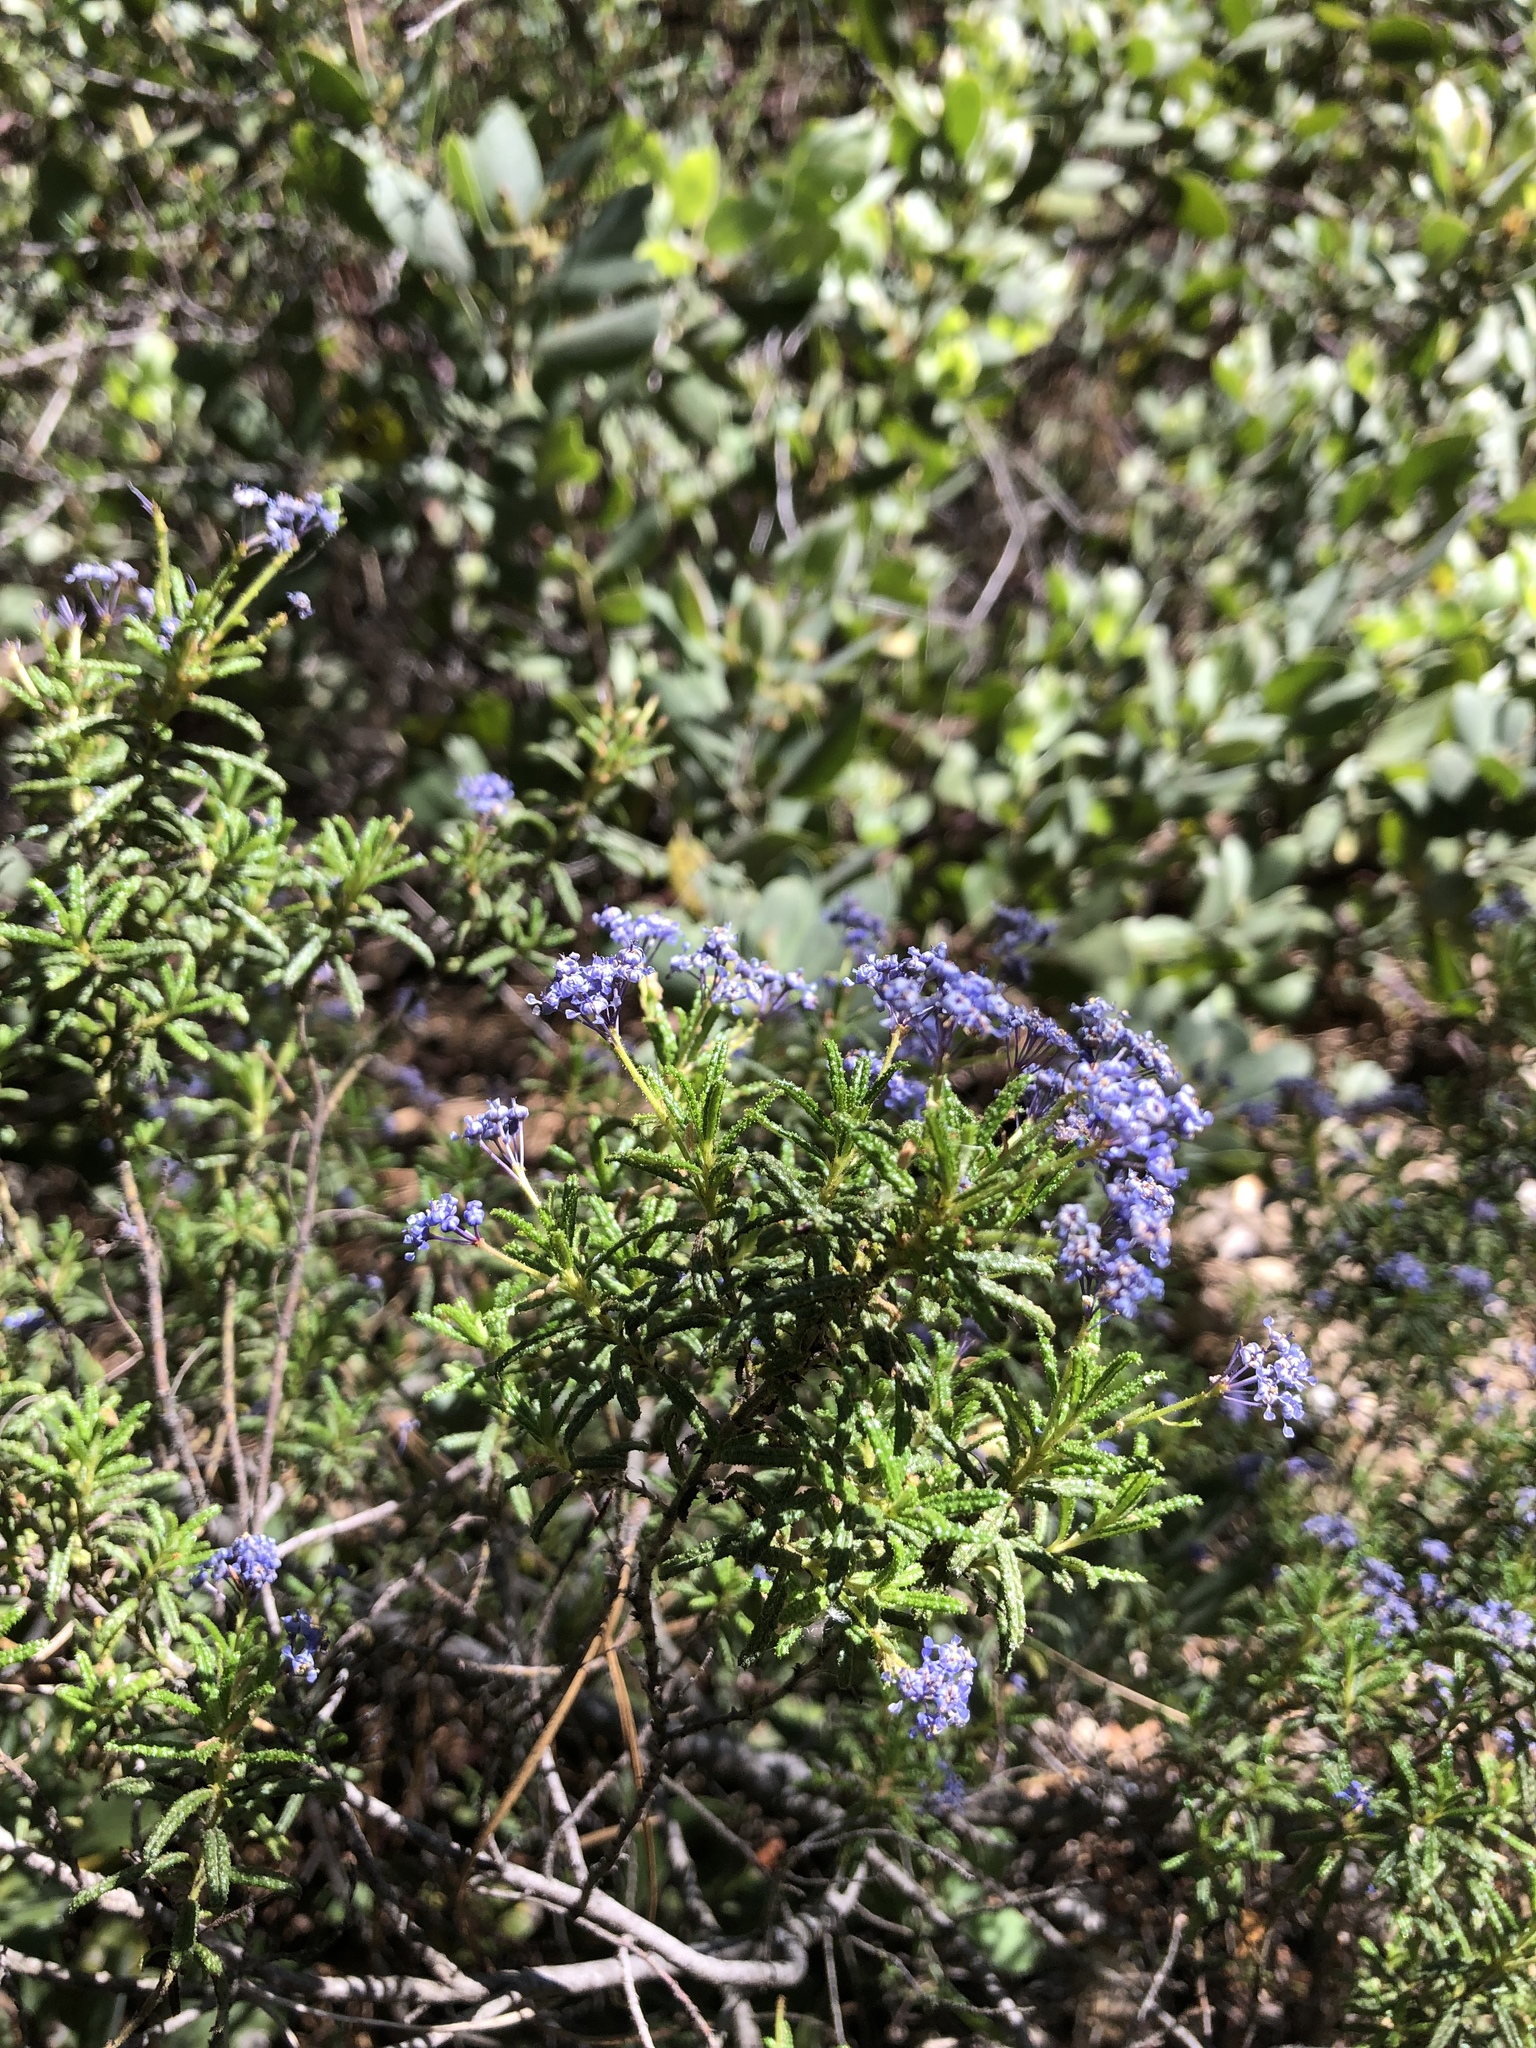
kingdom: Plantae
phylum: Tracheophyta
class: Magnoliopsida
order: Rosales
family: Rhamnaceae
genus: Ceanothus
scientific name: Ceanothus papillosus
